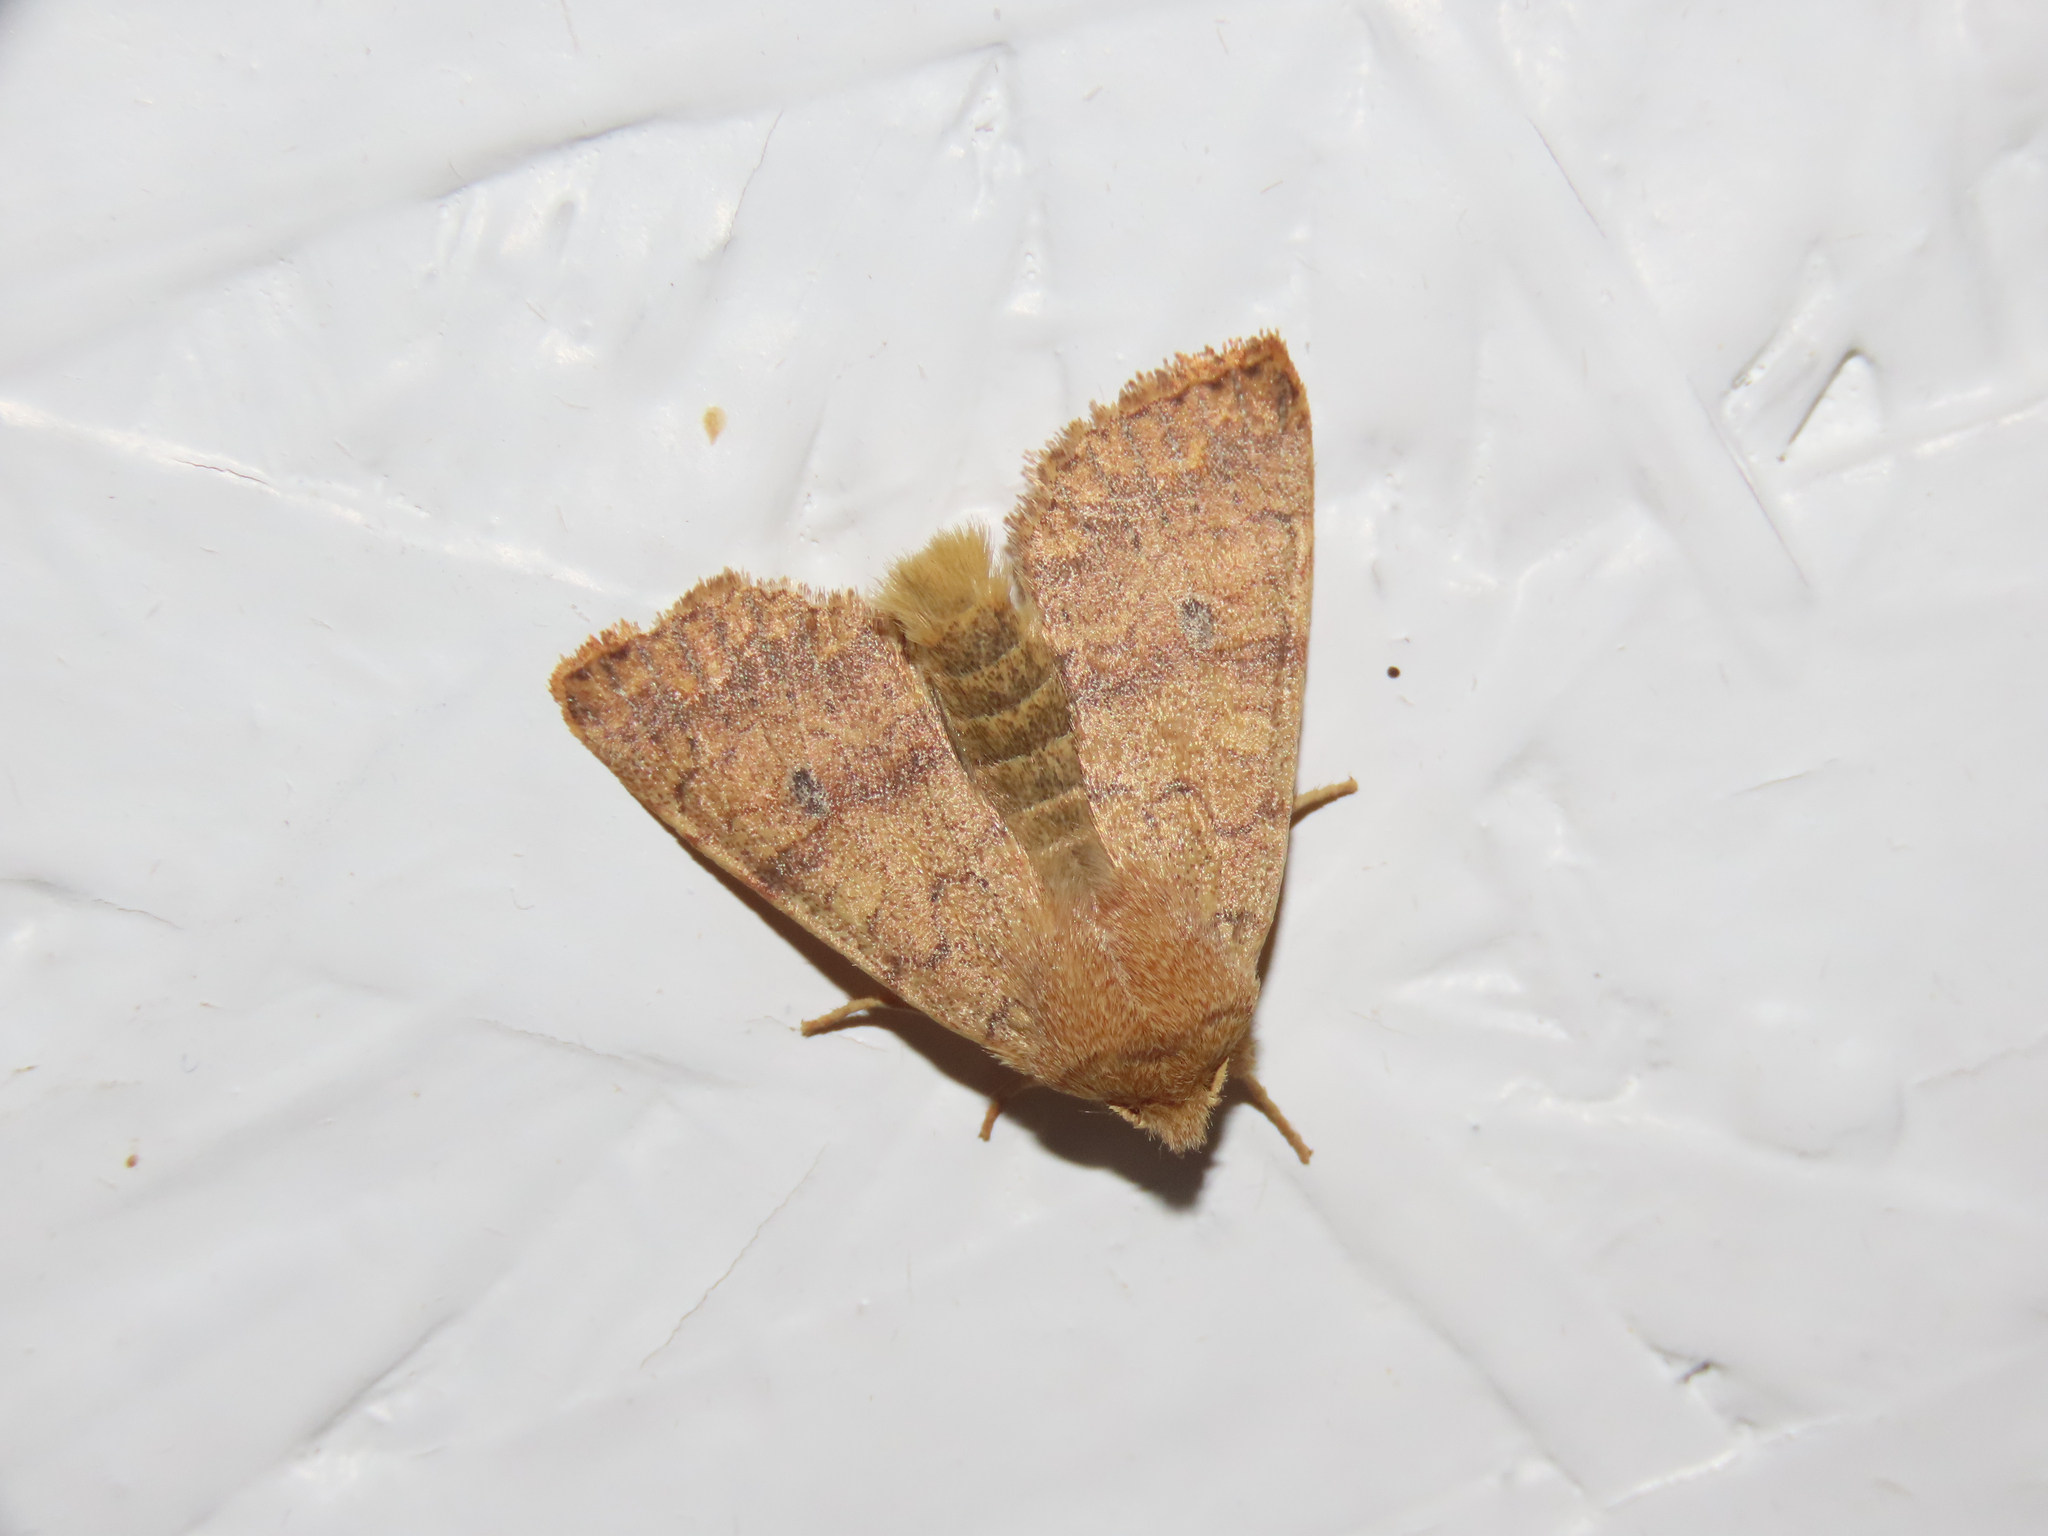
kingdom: Animalia
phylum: Arthropoda
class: Insecta
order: Lepidoptera
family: Noctuidae
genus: Agrochola
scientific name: Agrochola bicolorago
